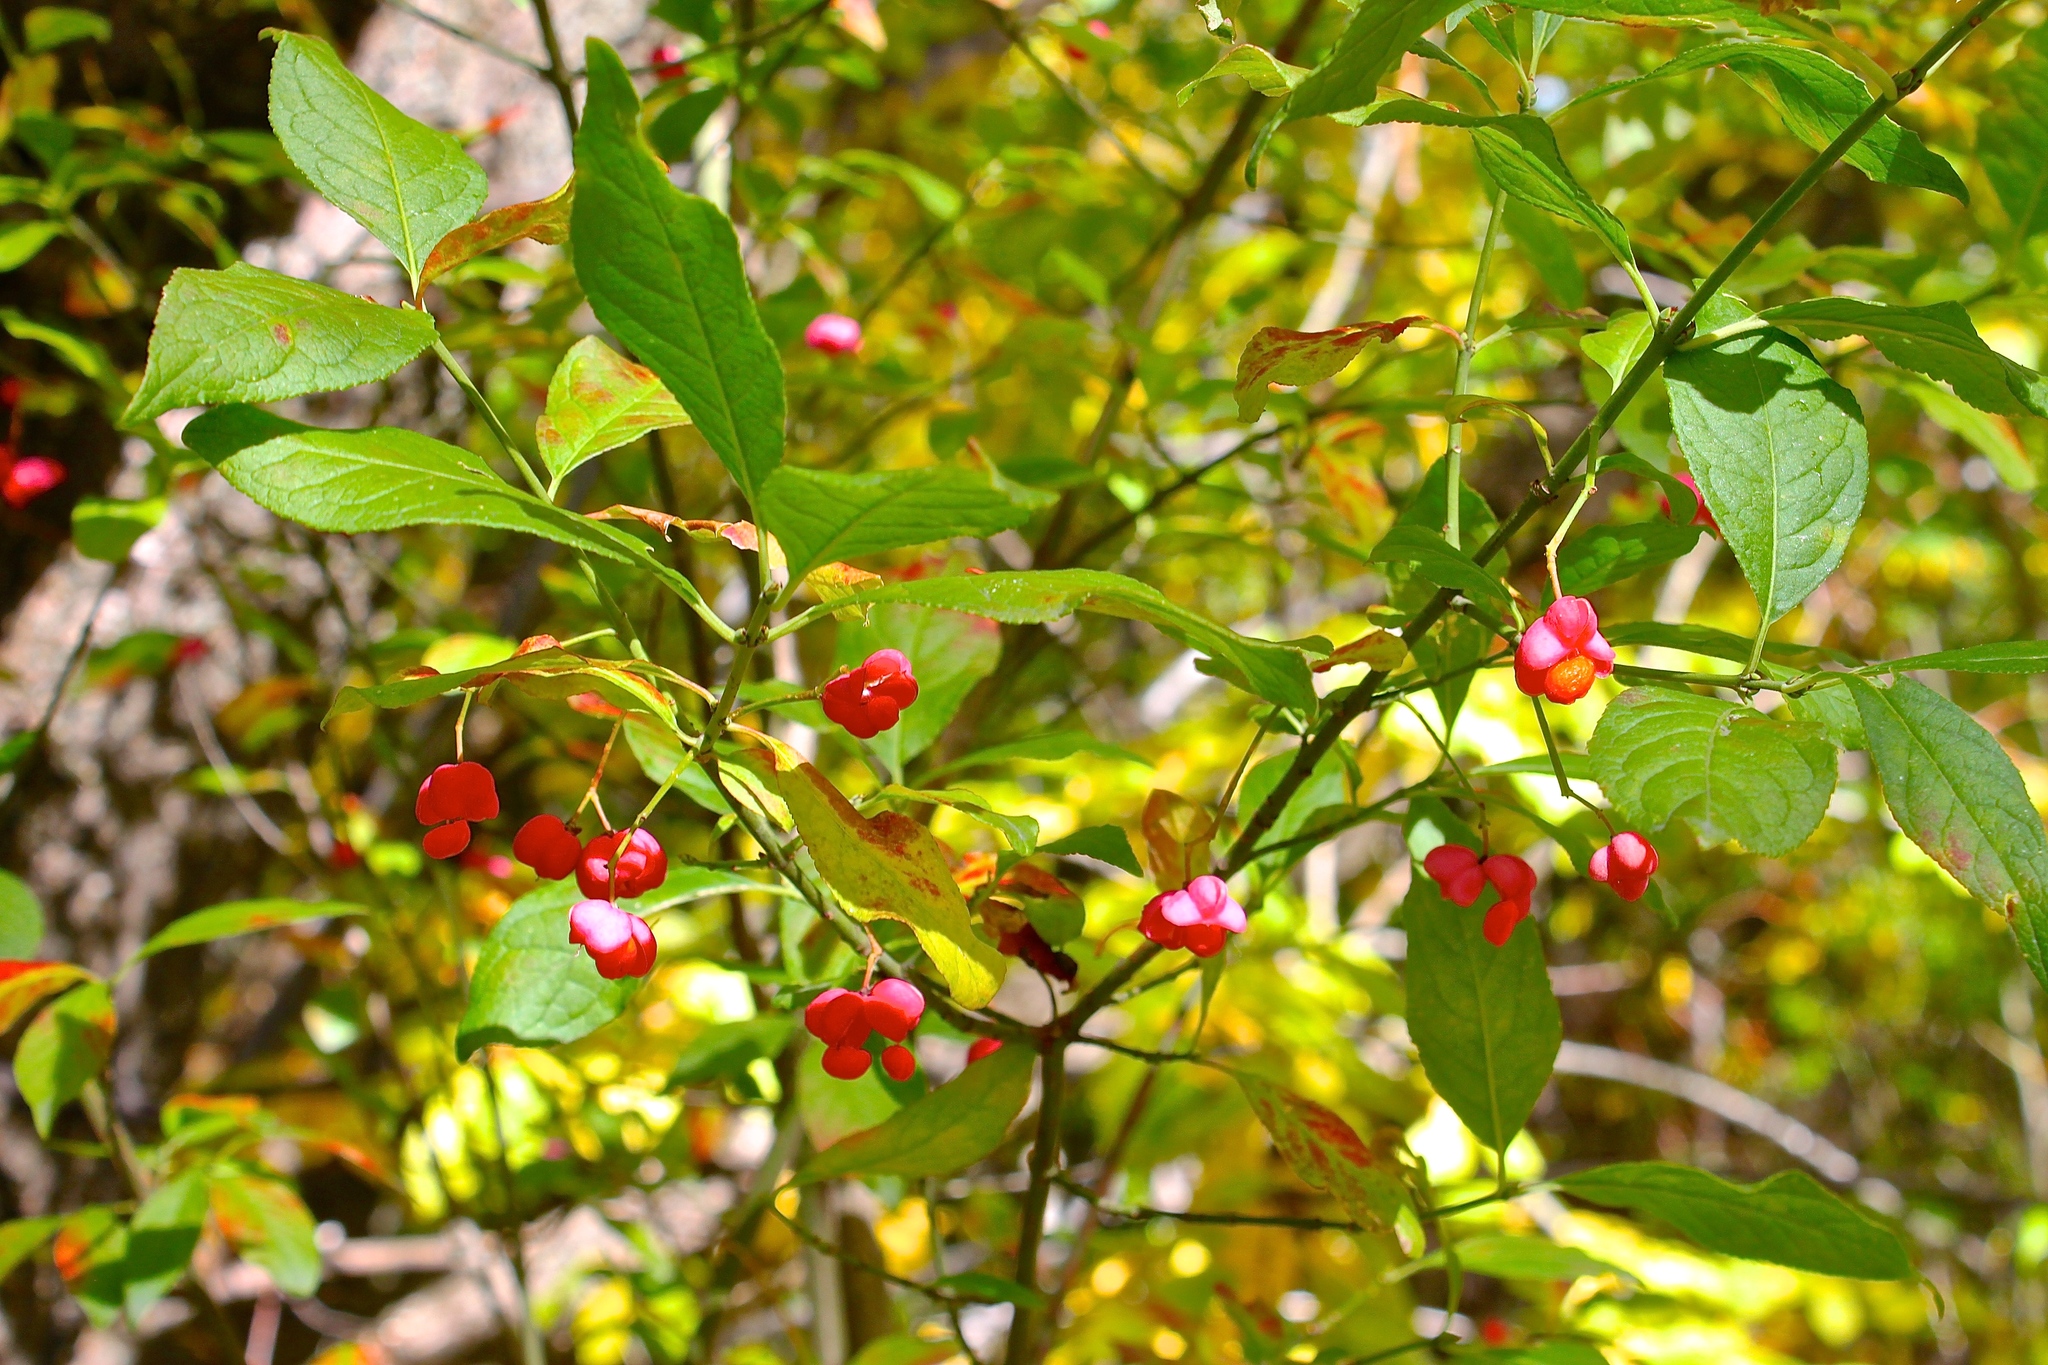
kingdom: Plantae
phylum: Tracheophyta
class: Magnoliopsida
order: Celastrales
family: Celastraceae
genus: Euonymus
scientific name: Euonymus europaeus
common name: Spindle
